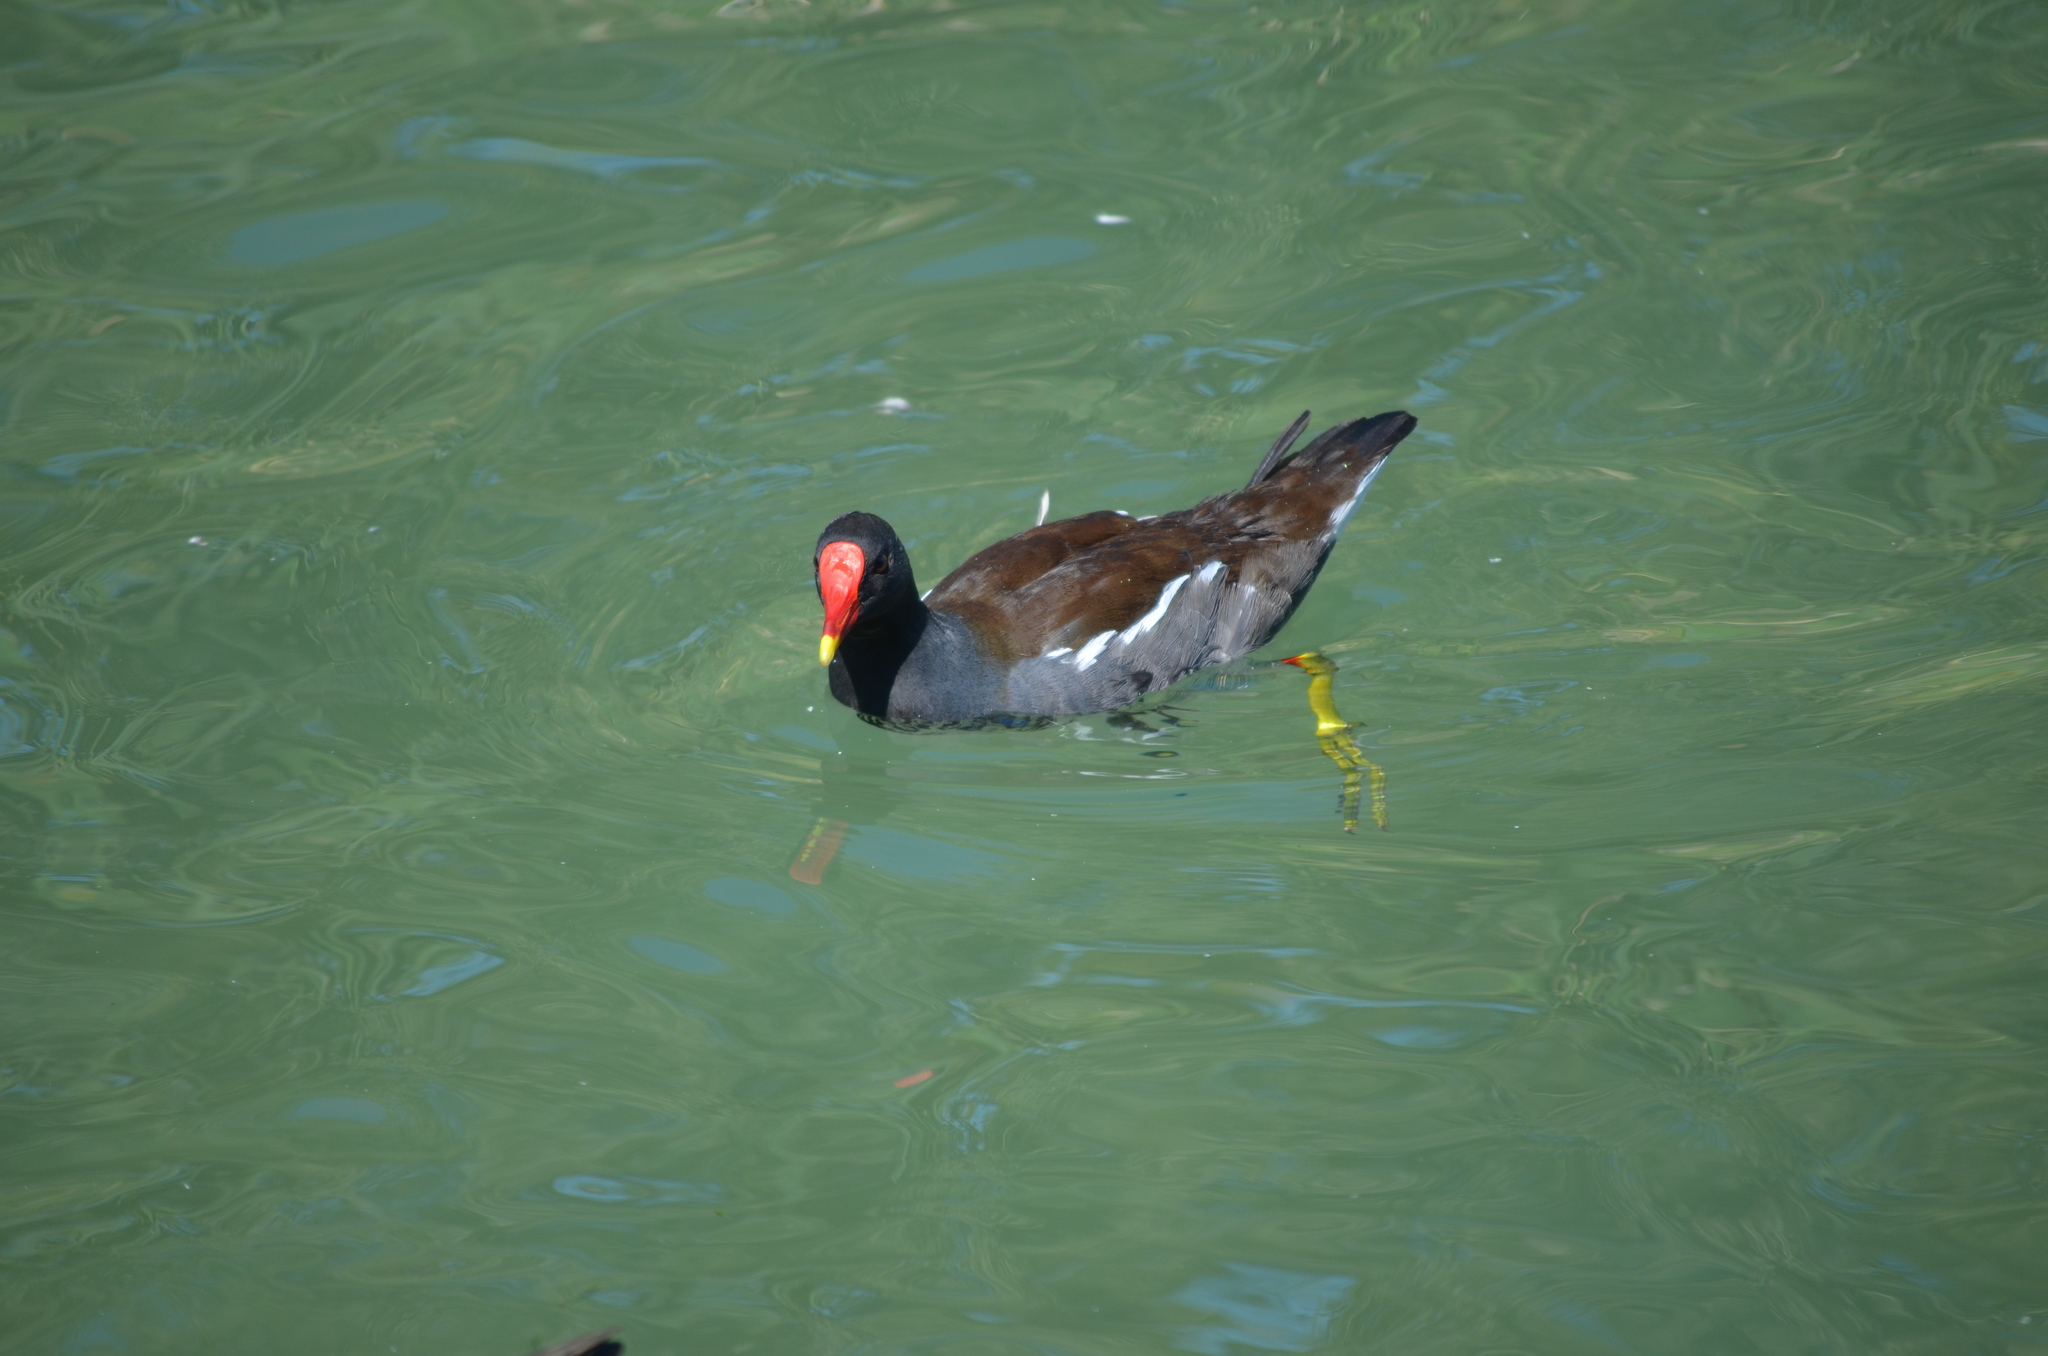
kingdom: Animalia
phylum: Chordata
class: Aves
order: Gruiformes
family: Rallidae
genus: Gallinula
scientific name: Gallinula chloropus
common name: Common moorhen
